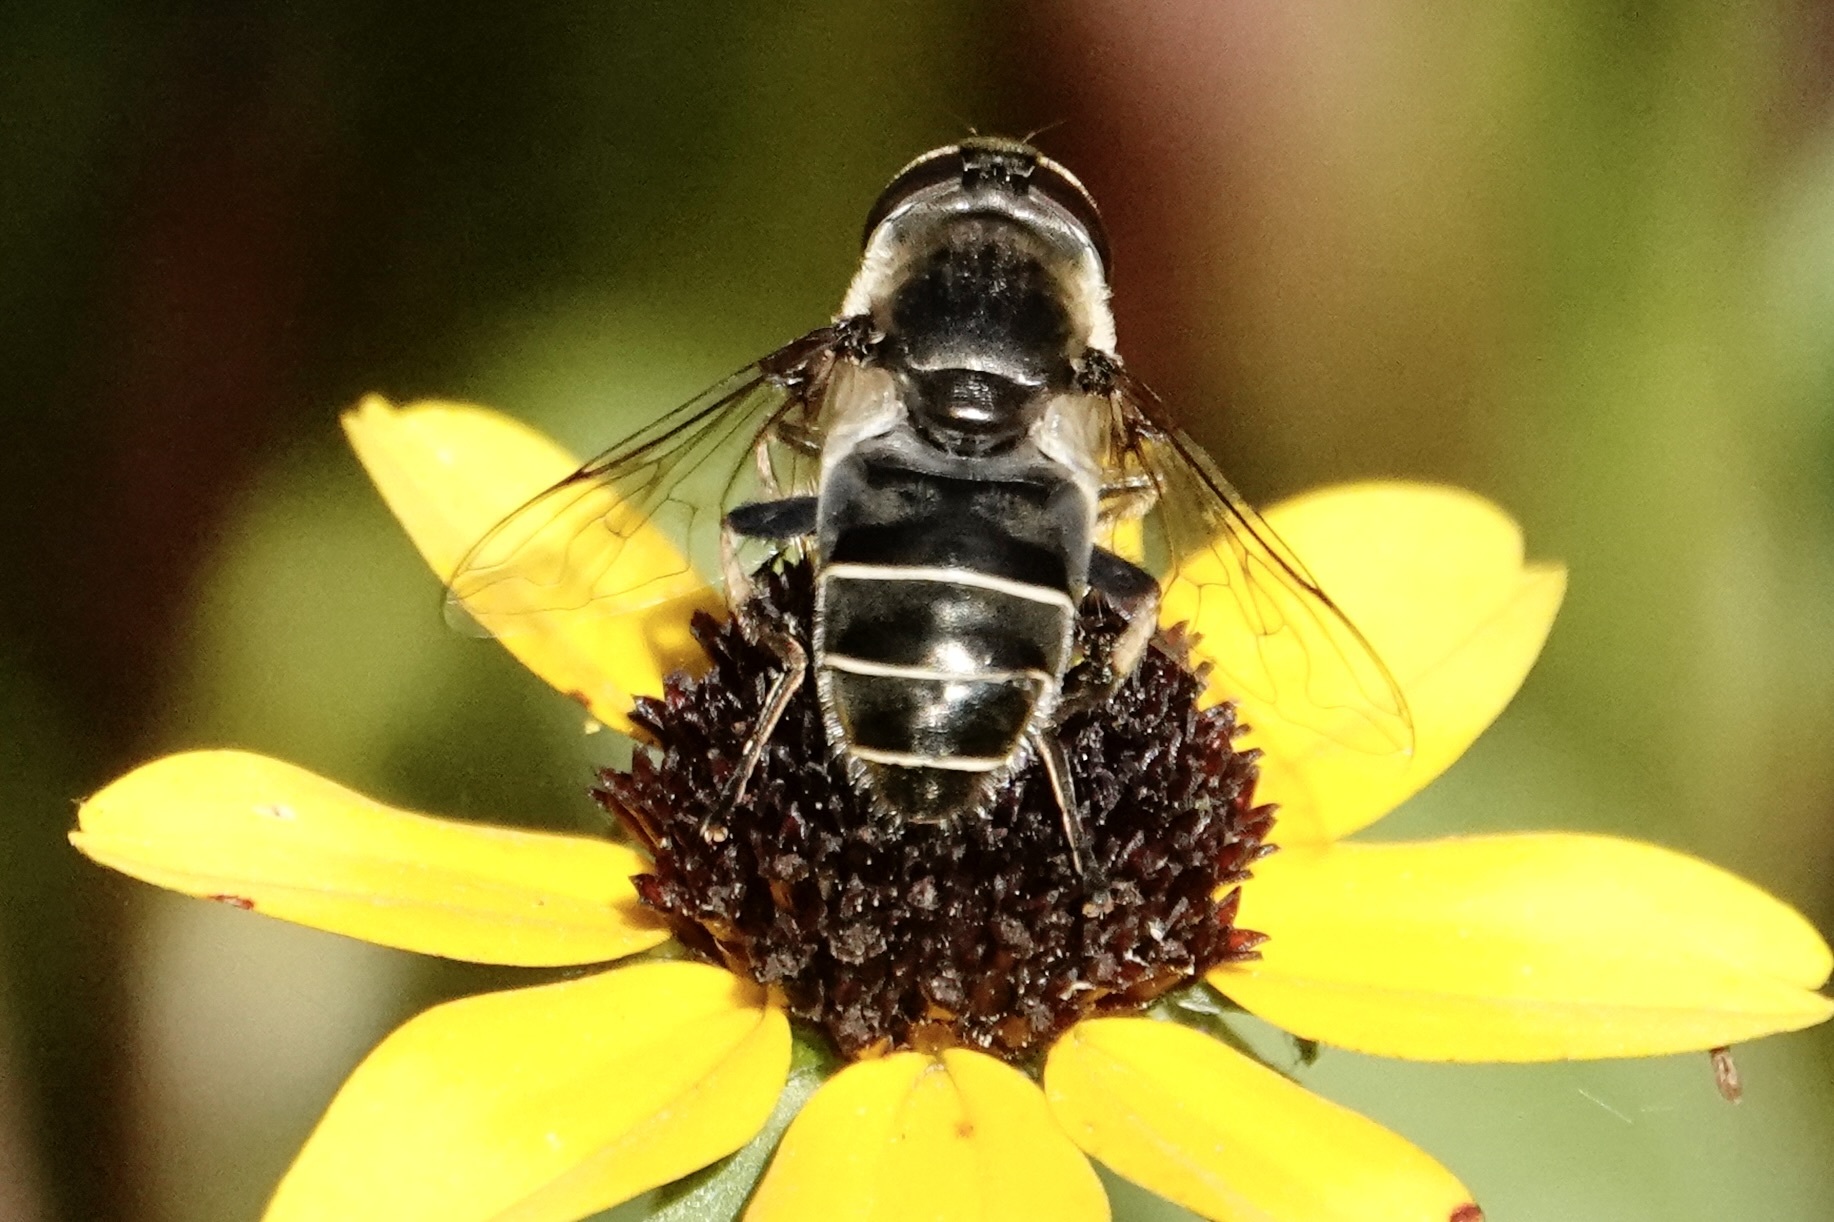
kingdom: Animalia
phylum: Arthropoda
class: Insecta
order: Diptera
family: Syrphidae
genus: Eristalis
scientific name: Eristalis dimidiata
